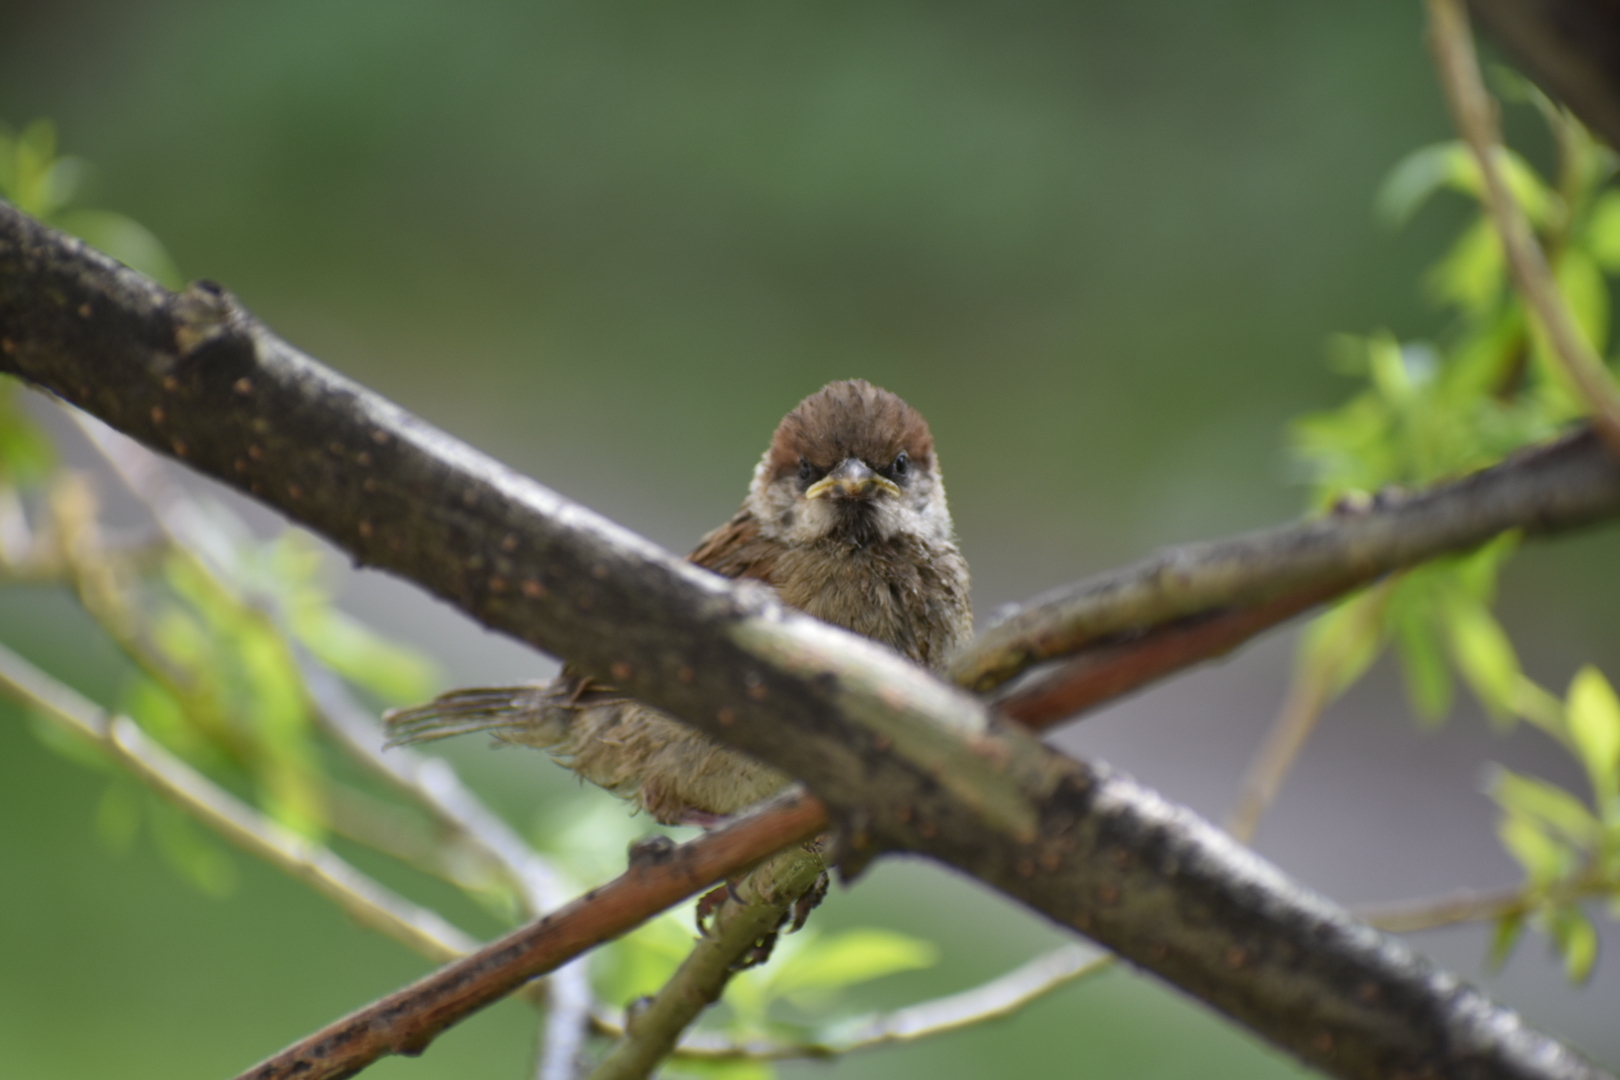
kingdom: Animalia
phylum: Chordata
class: Aves
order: Passeriformes
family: Passeridae
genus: Passer
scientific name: Passer montanus
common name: Eurasian tree sparrow
